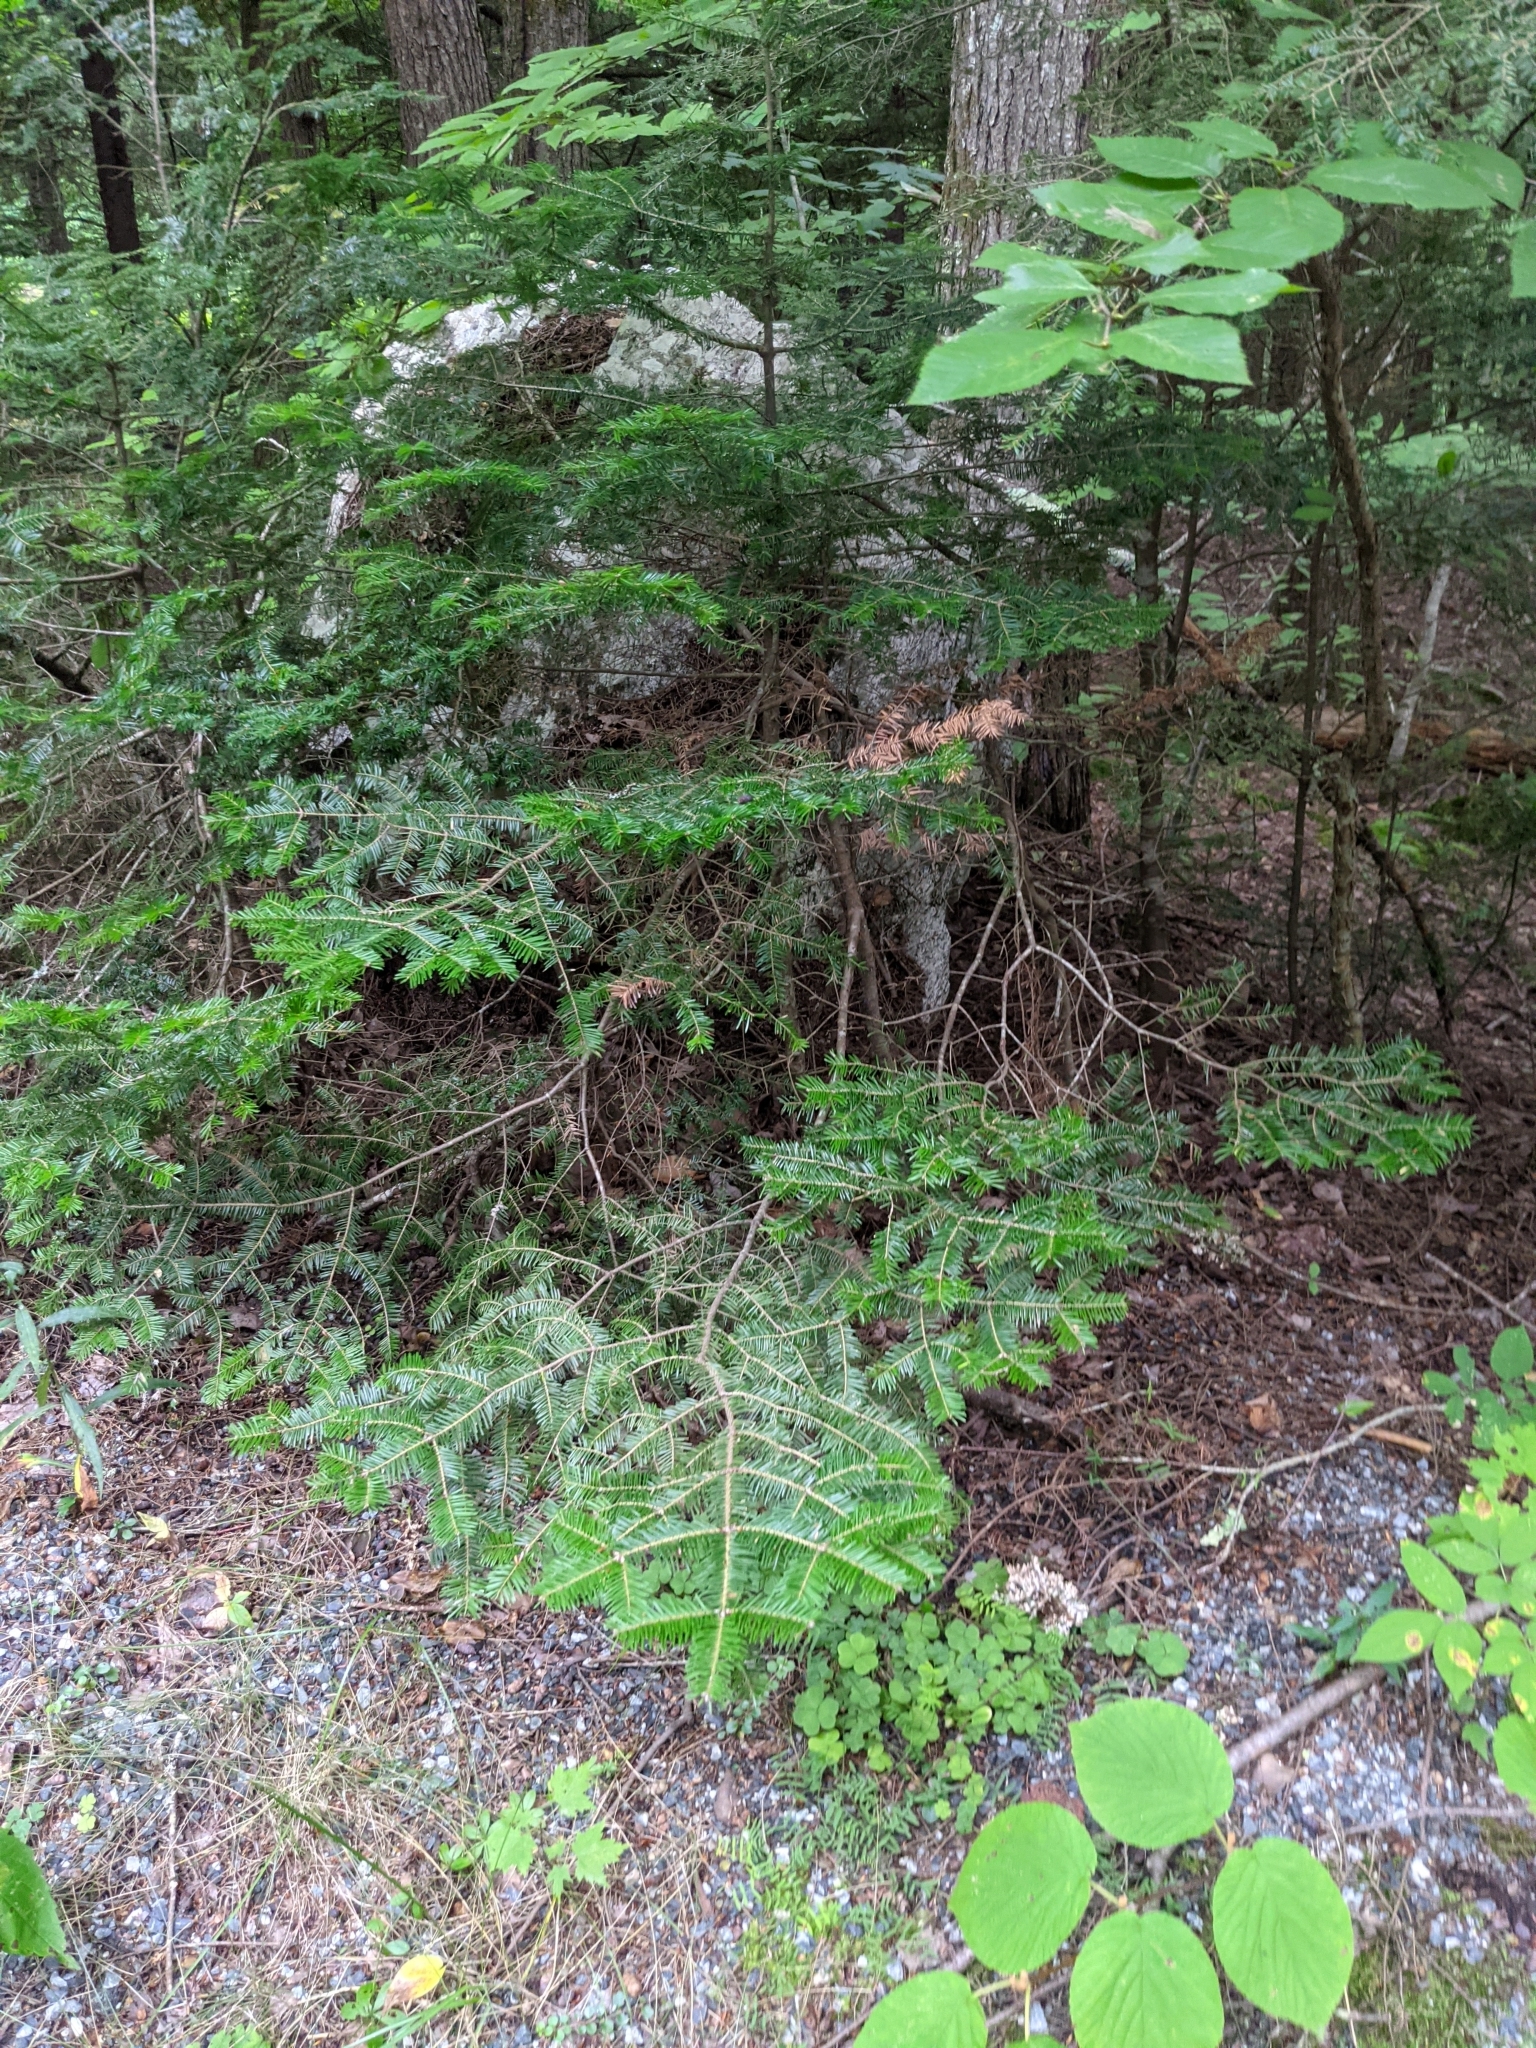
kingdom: Plantae
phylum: Tracheophyta
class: Pinopsida
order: Pinales
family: Pinaceae
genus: Abies
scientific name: Abies balsamea
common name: Balsam fir
